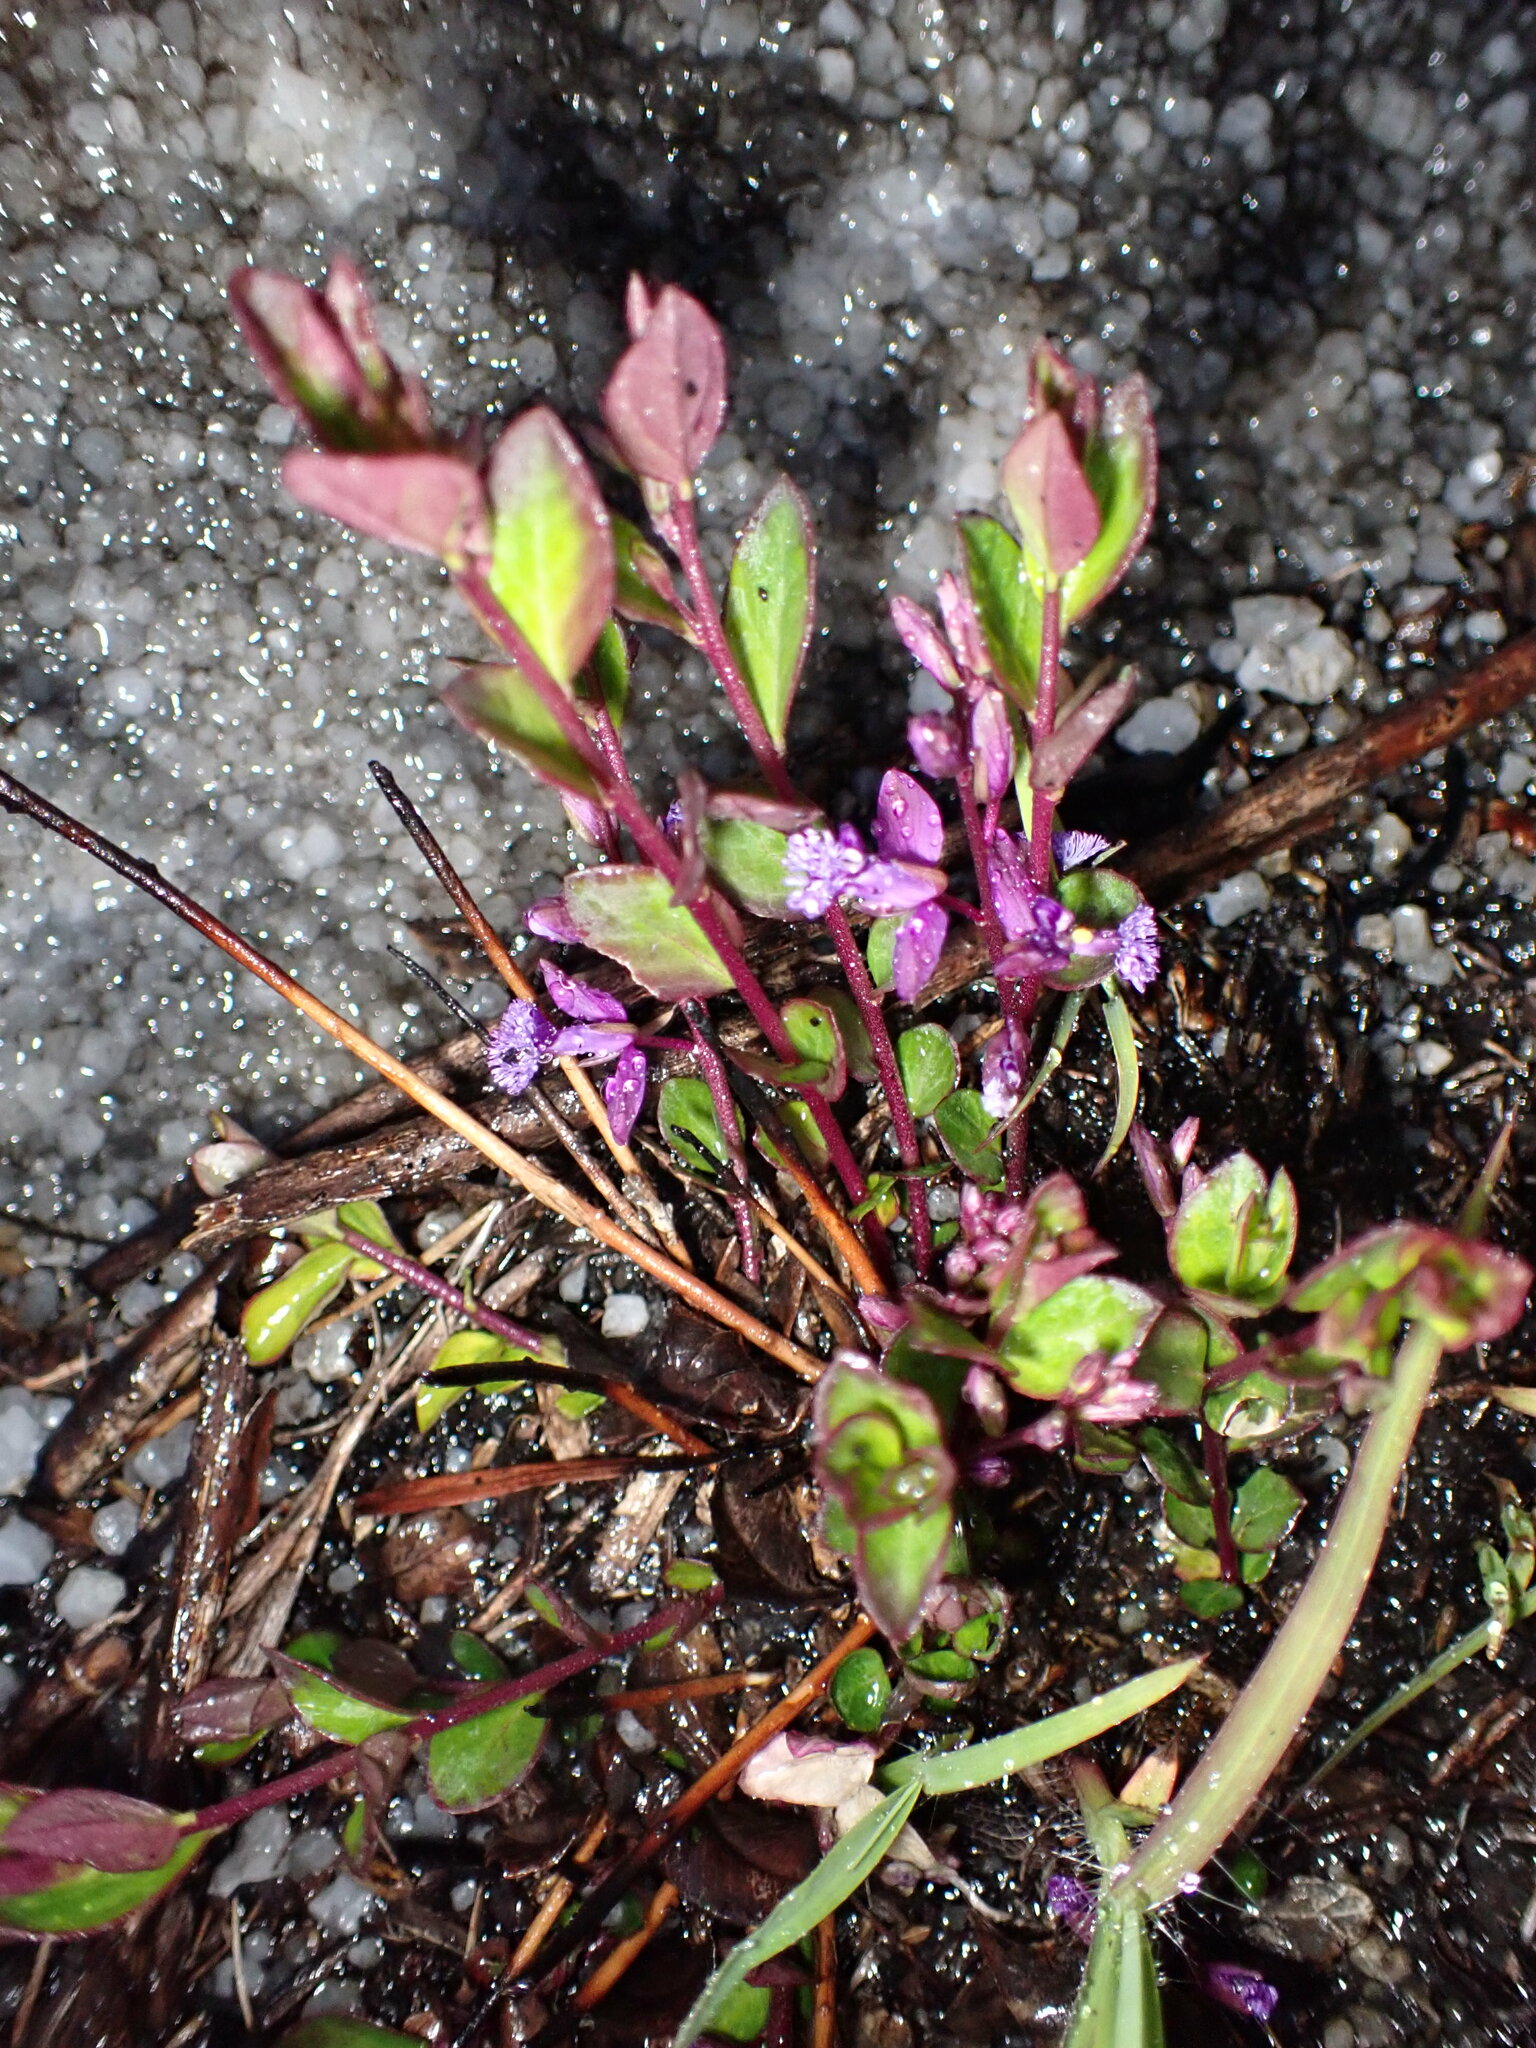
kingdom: Plantae
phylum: Tracheophyta
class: Magnoliopsida
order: Fabales
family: Polygalaceae
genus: Polygala
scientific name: Polygala japonica
